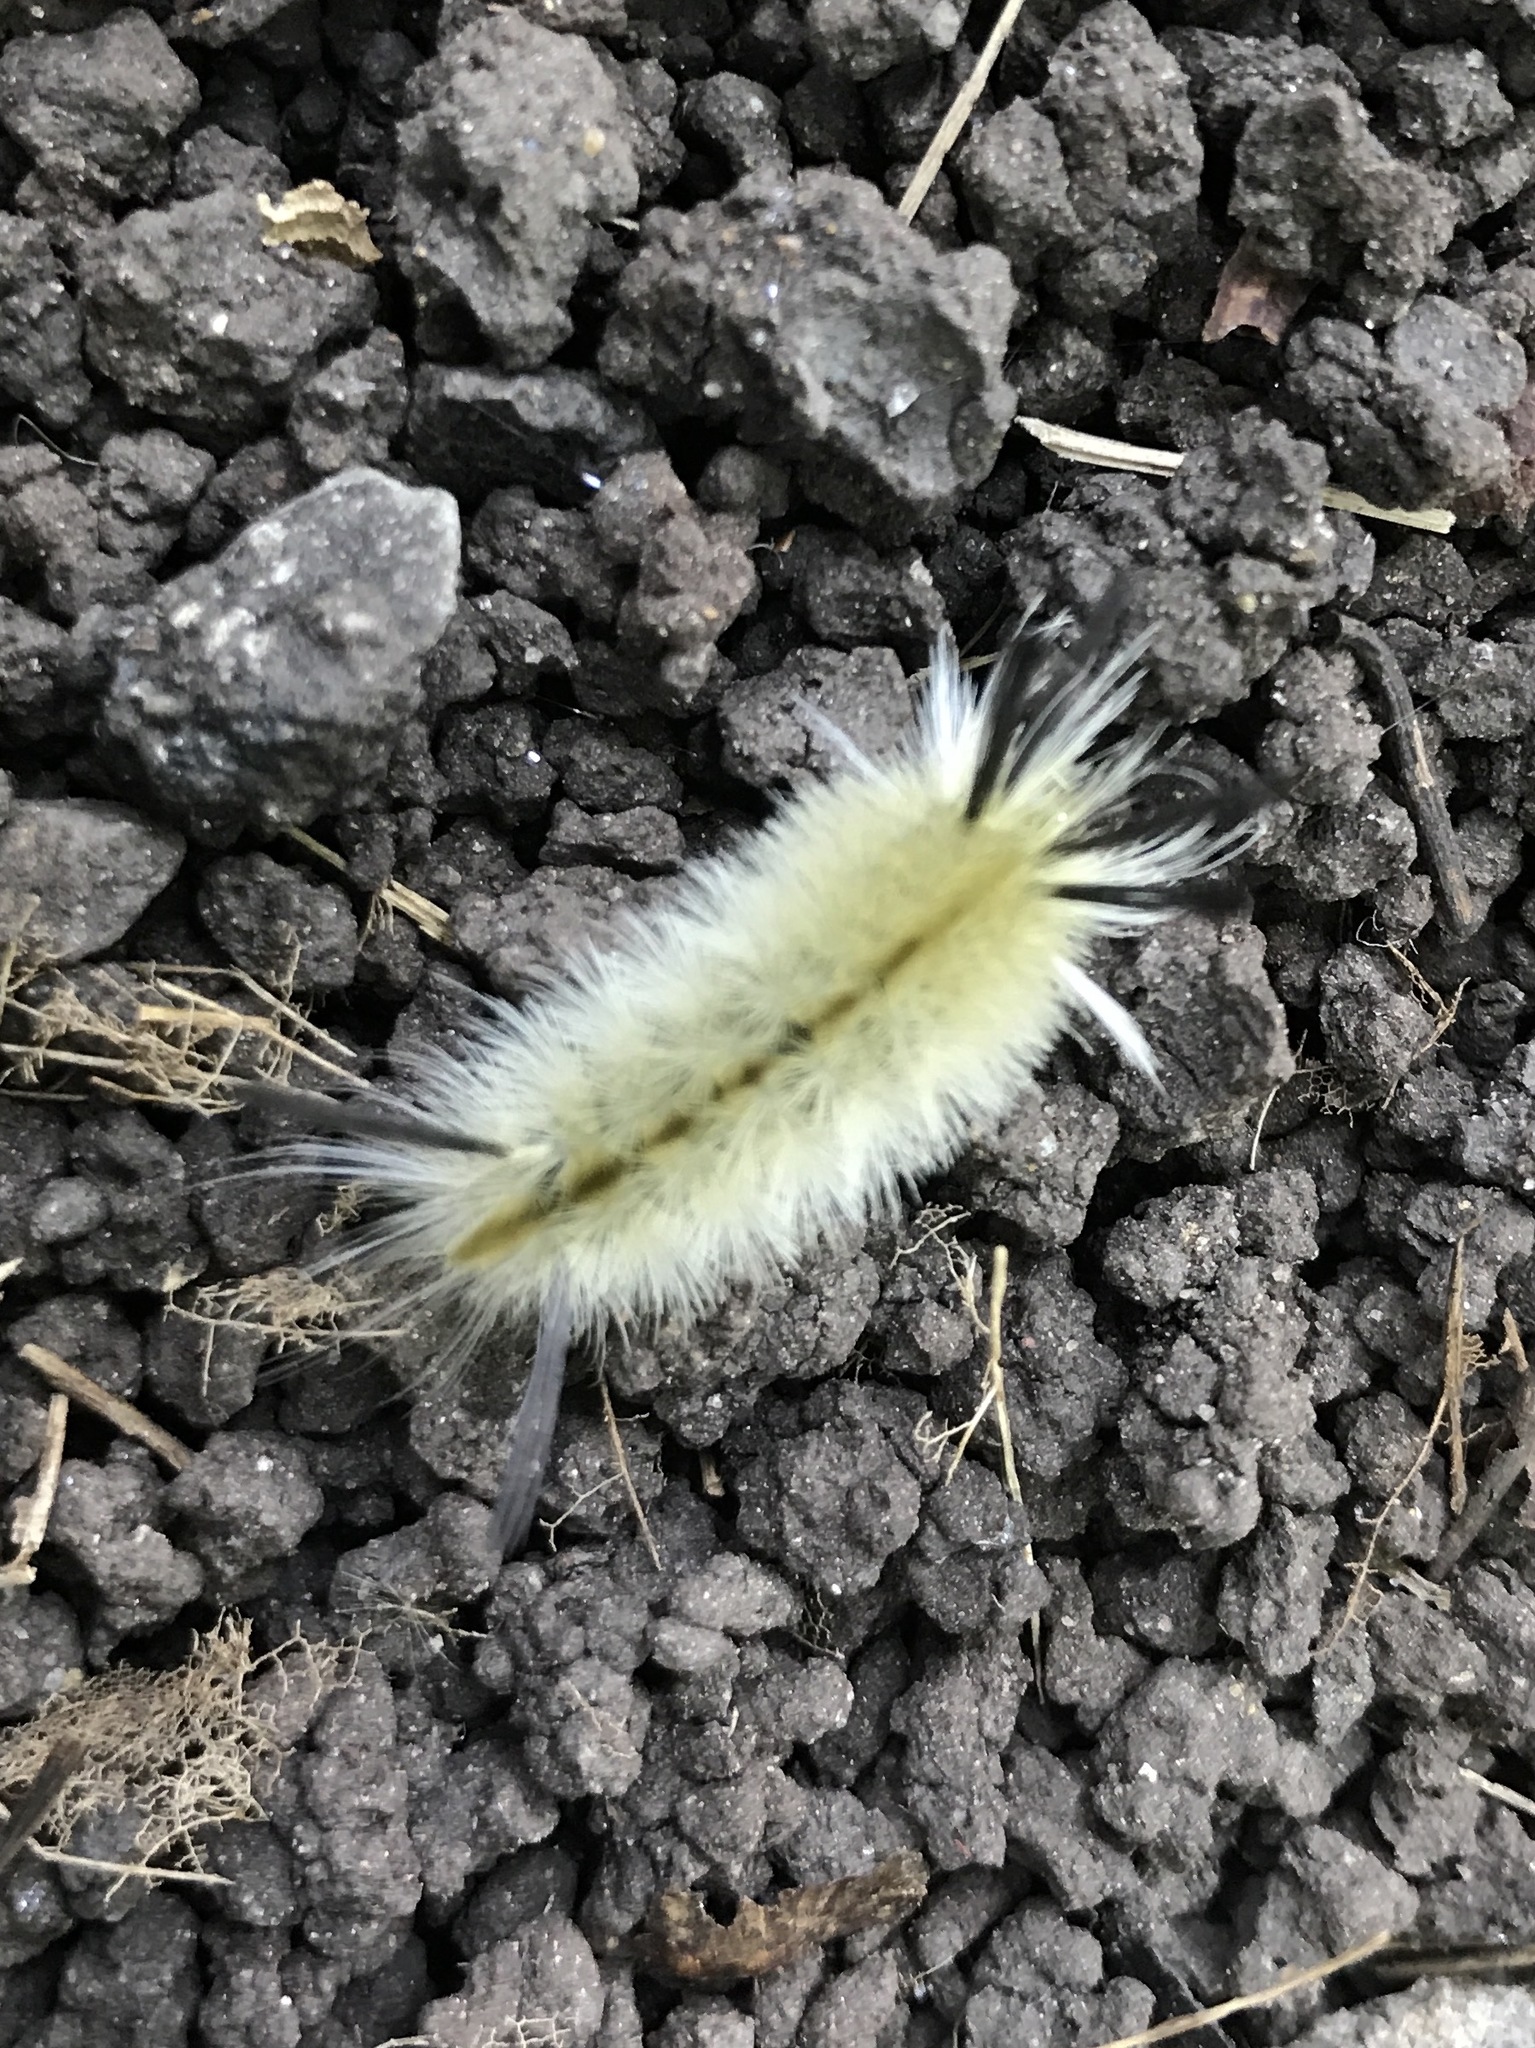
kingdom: Animalia
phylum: Arthropoda
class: Insecta
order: Lepidoptera
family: Erebidae
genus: Halysidota
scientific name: Halysidota tessellaris
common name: Banded tussock moth
